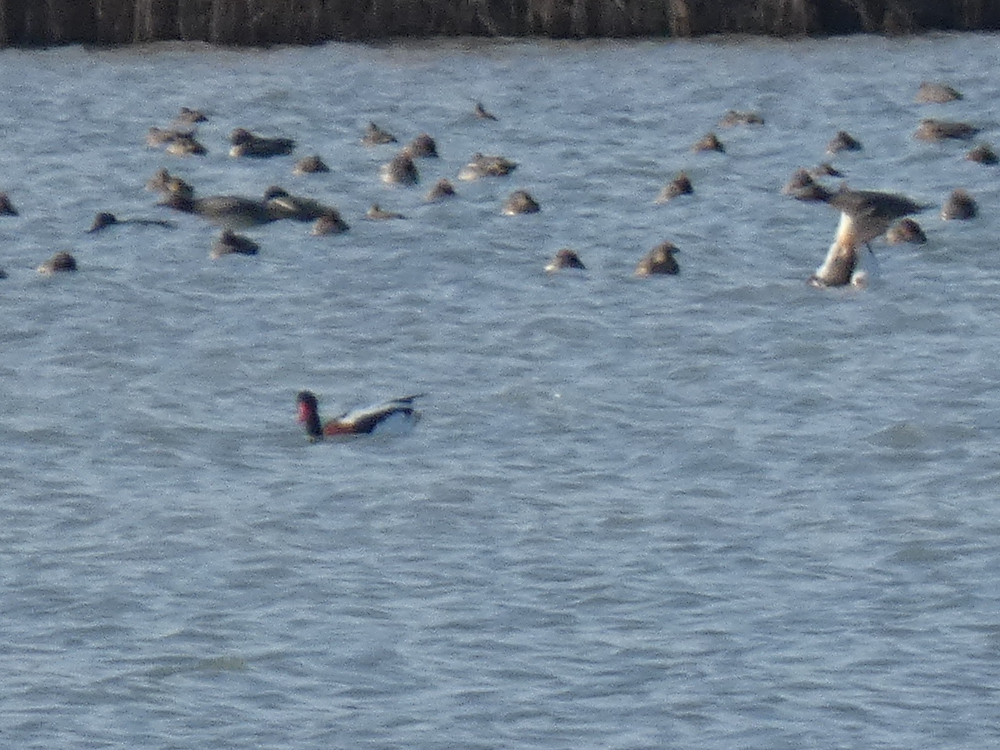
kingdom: Animalia
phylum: Chordata
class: Aves
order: Anseriformes
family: Anatidae
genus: Tadorna
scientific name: Tadorna tadorna
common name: Common shelduck
